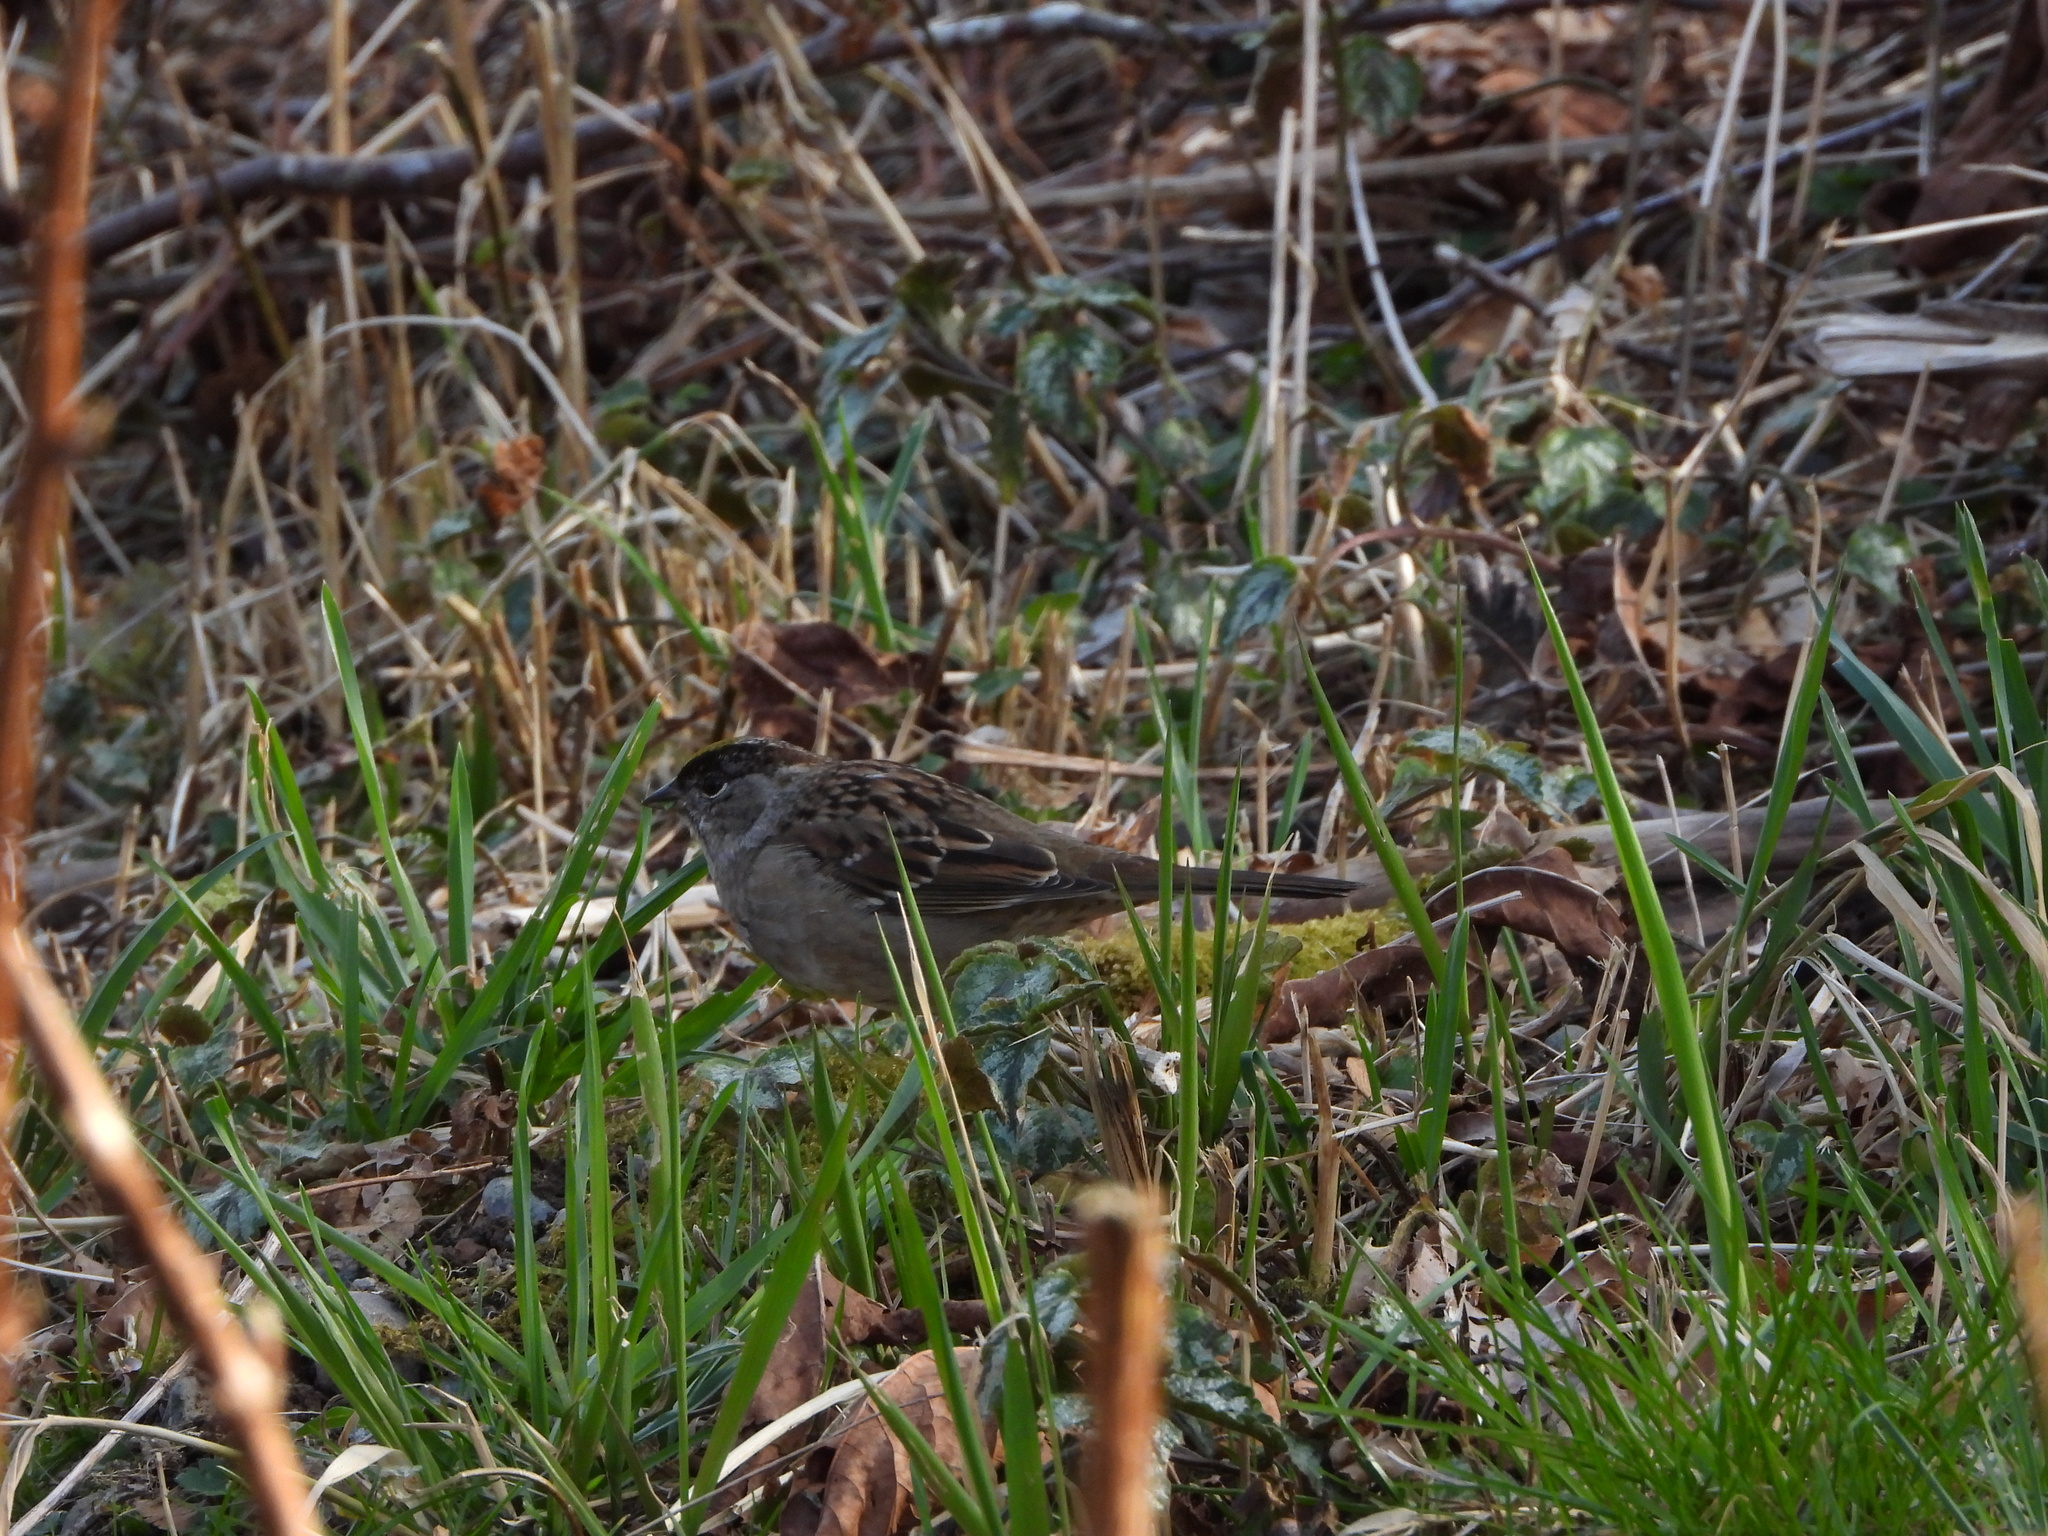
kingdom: Animalia
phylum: Chordata
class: Aves
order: Passeriformes
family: Passerellidae
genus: Zonotrichia
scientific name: Zonotrichia atricapilla
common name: Golden-crowned sparrow
